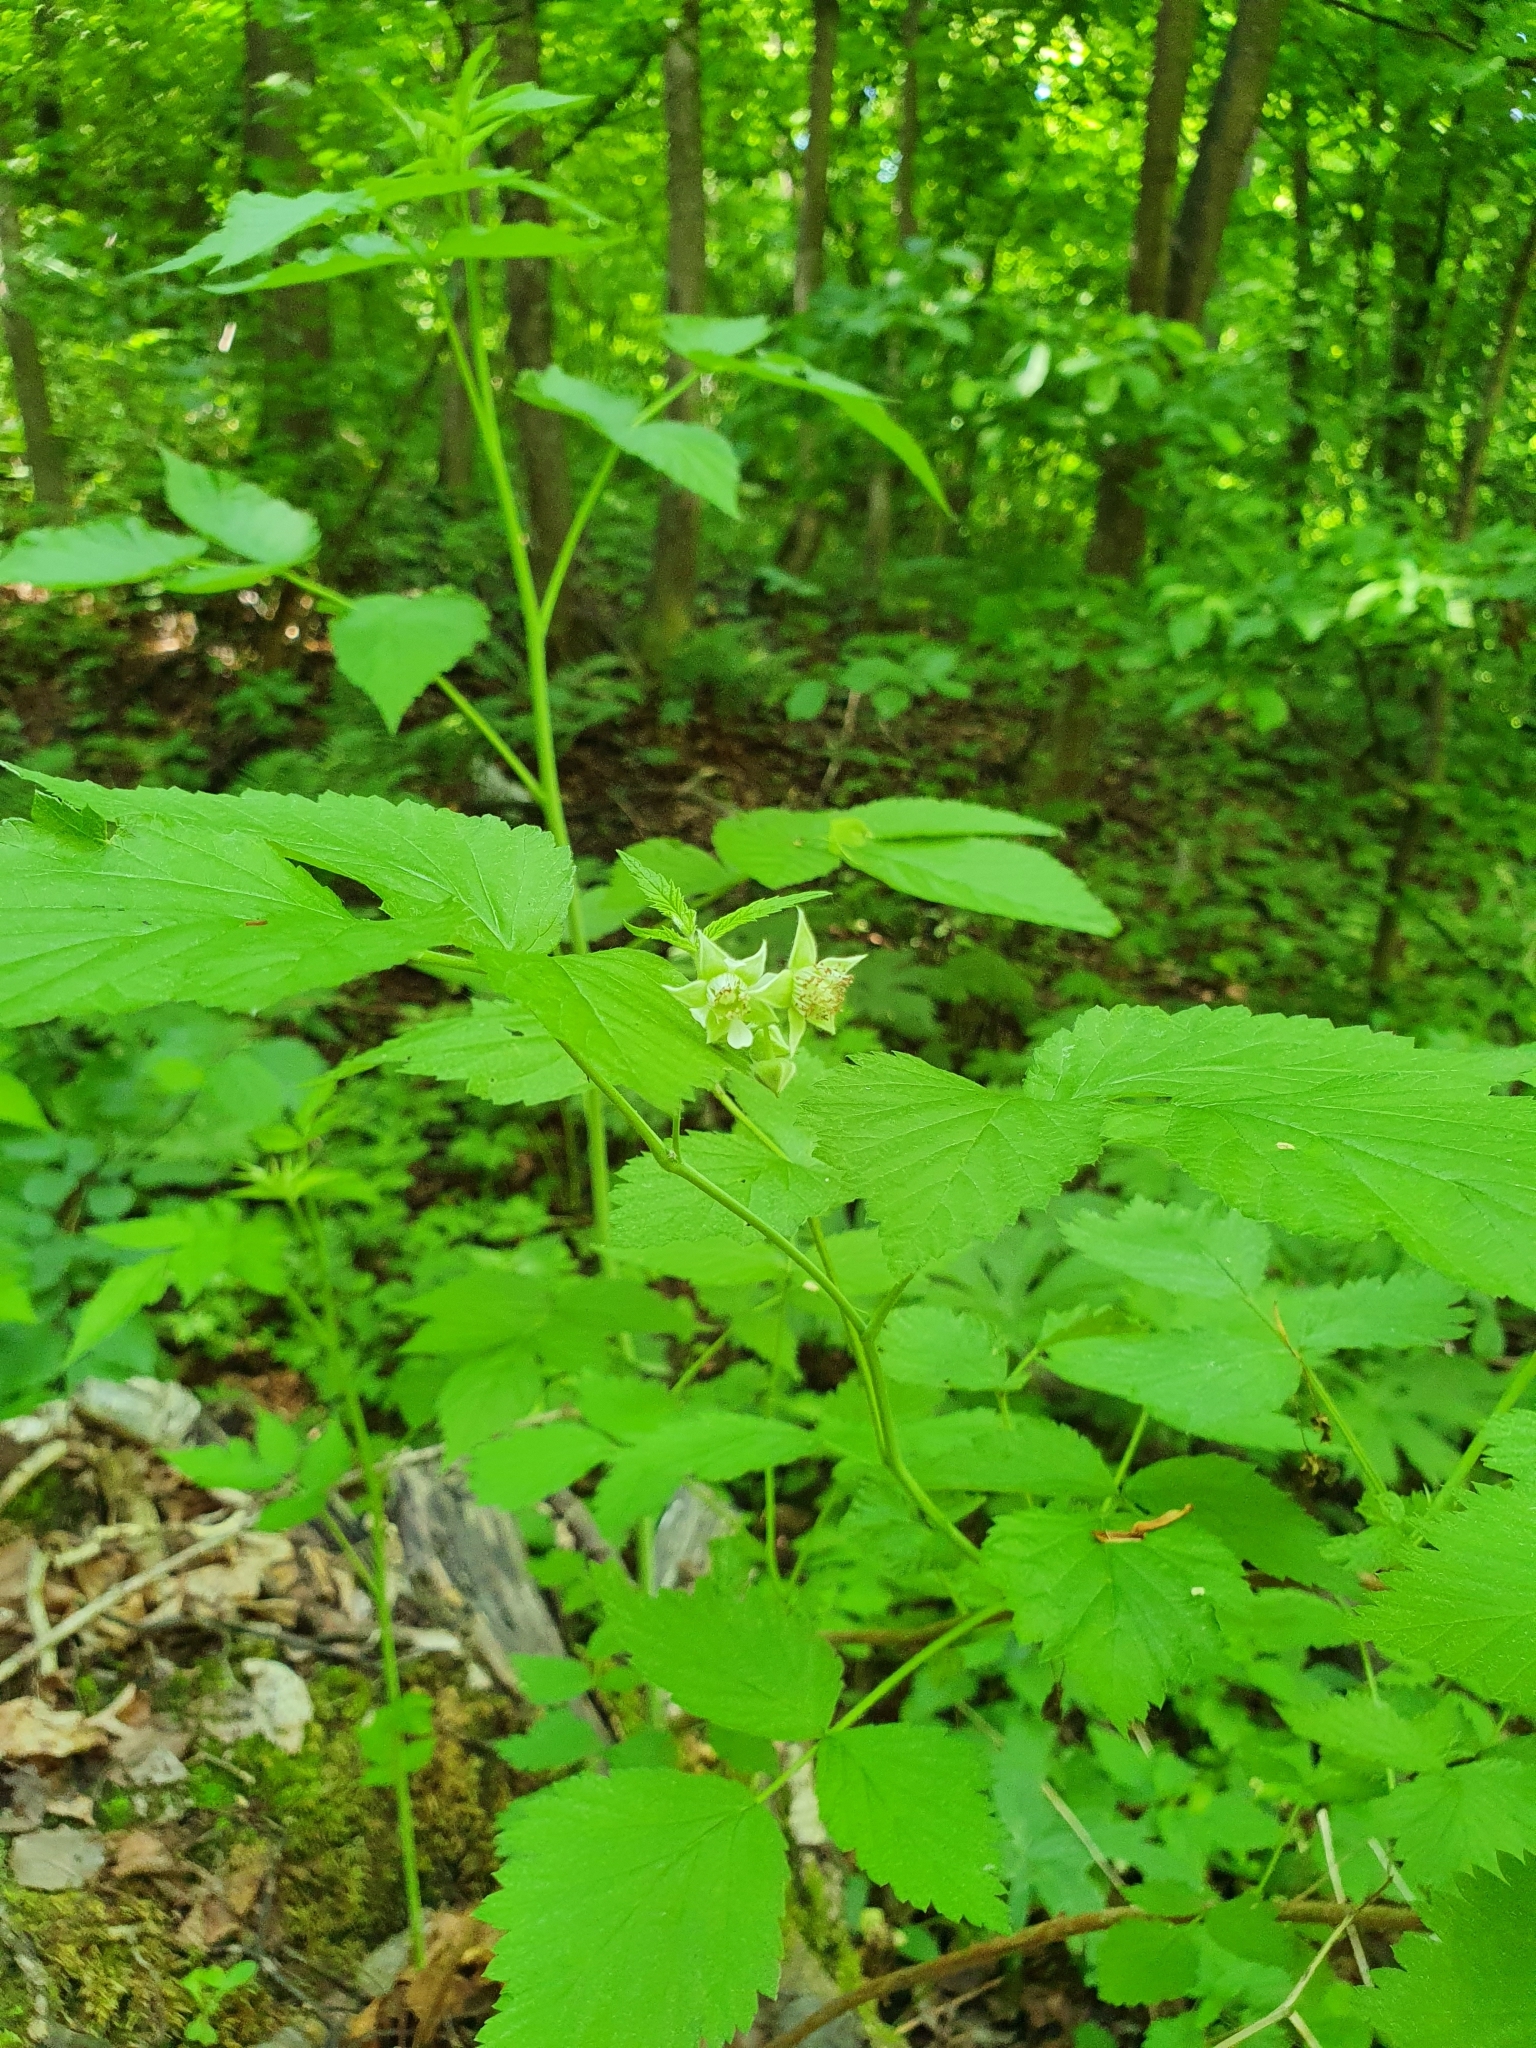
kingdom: Plantae
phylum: Tracheophyta
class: Magnoliopsida
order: Rosales
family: Rosaceae
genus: Rubus
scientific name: Rubus idaeus
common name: Raspberry
